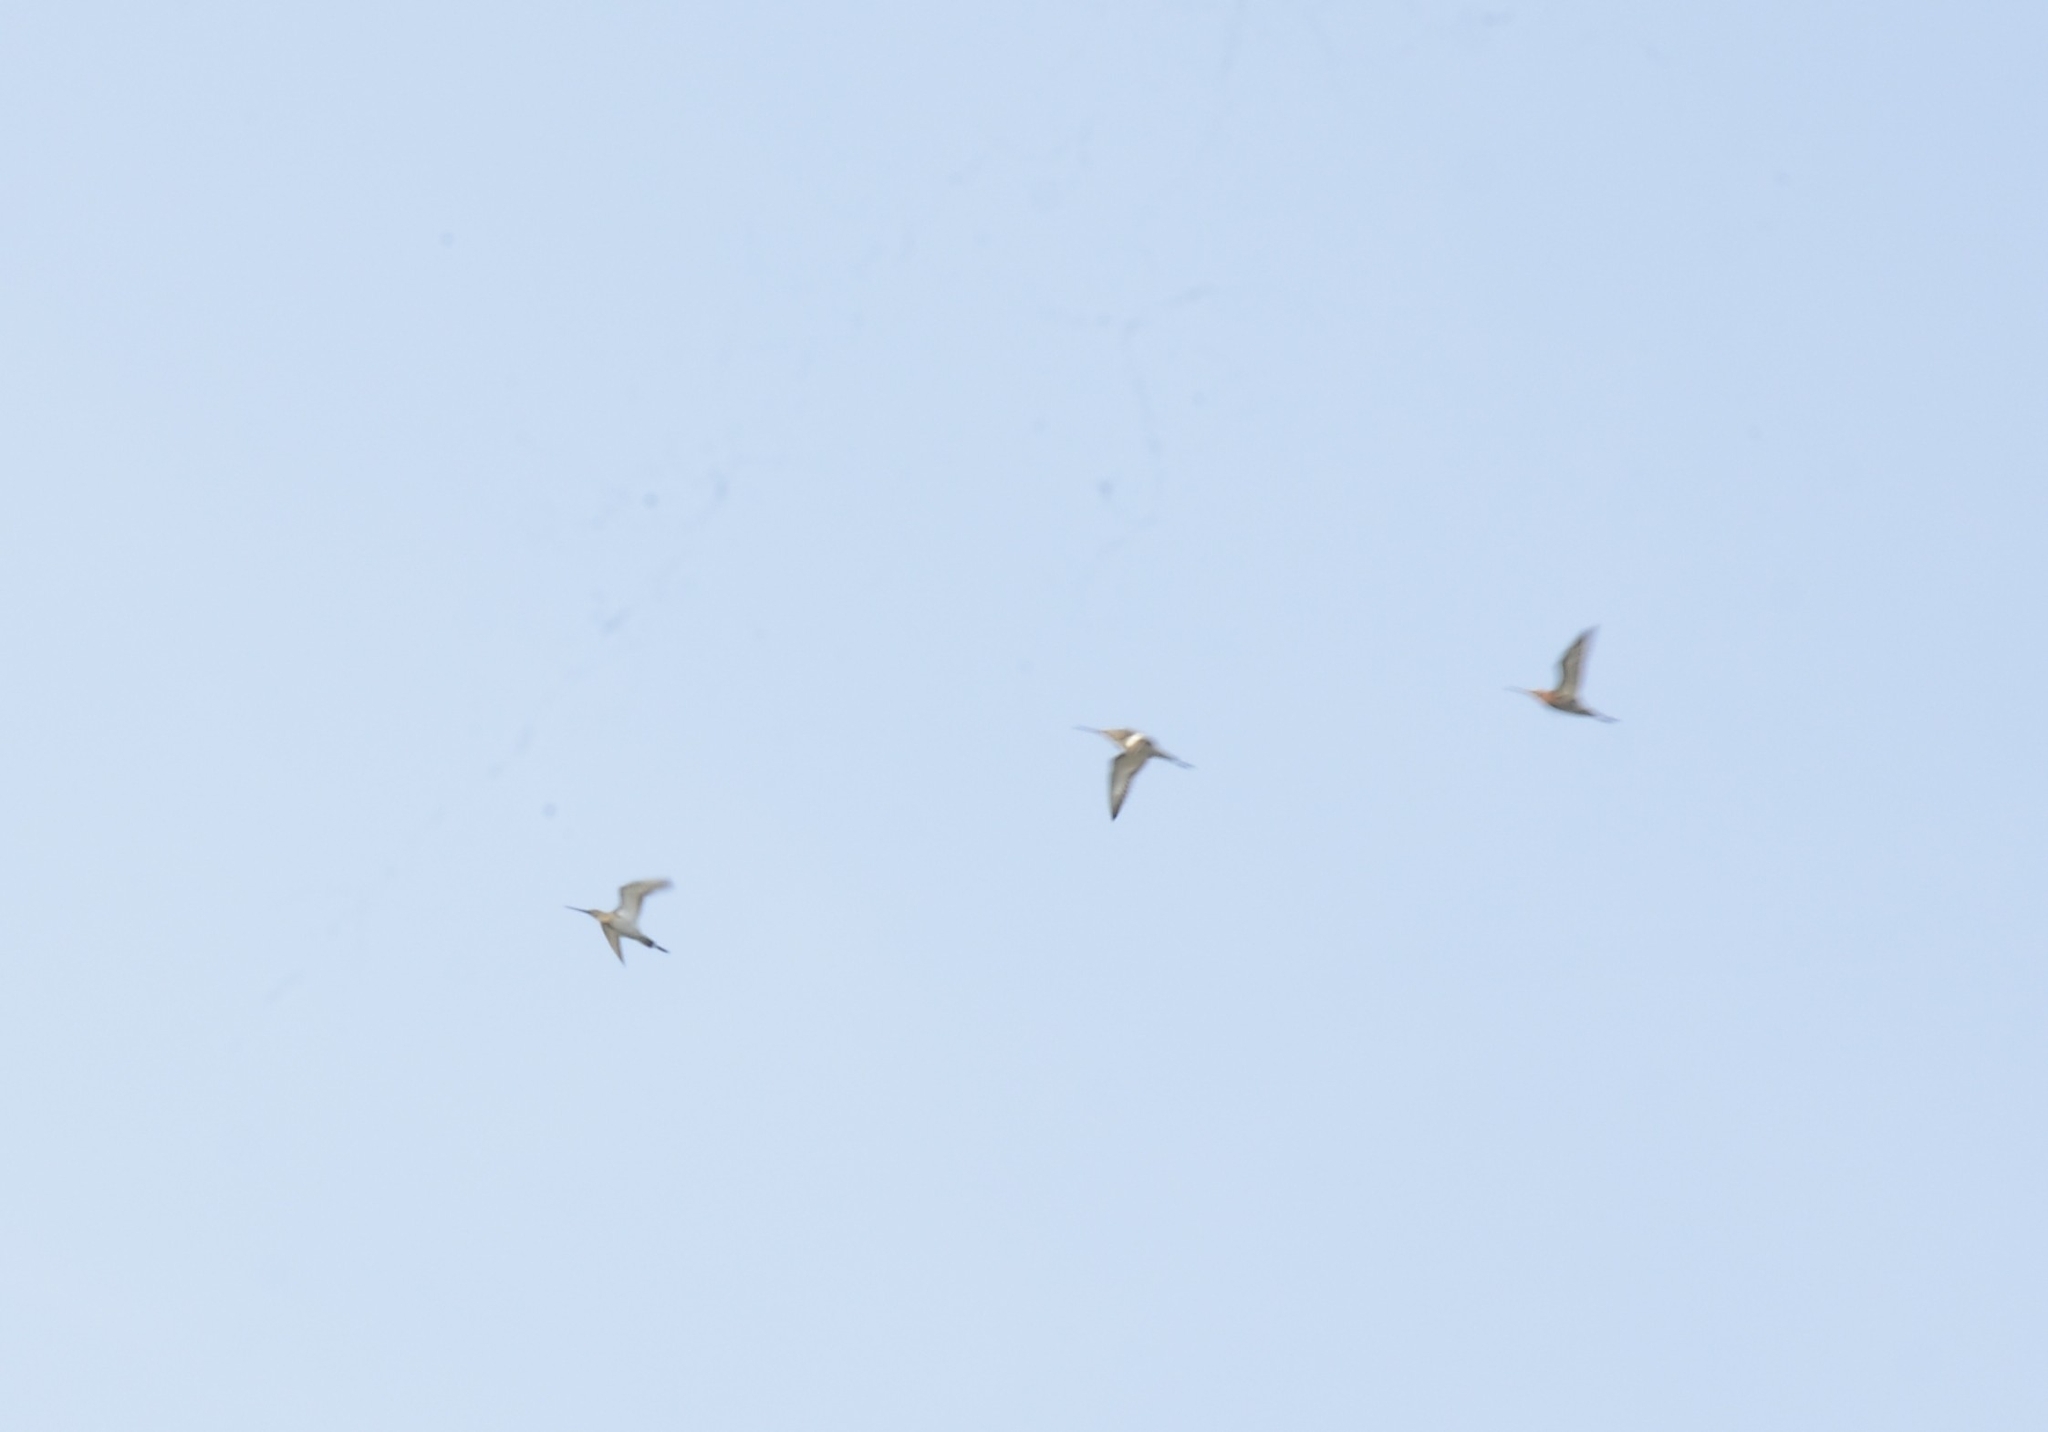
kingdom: Animalia
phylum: Chordata
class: Aves
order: Charadriiformes
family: Scolopacidae
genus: Limosa
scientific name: Limosa limosa
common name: Black-tailed godwit
